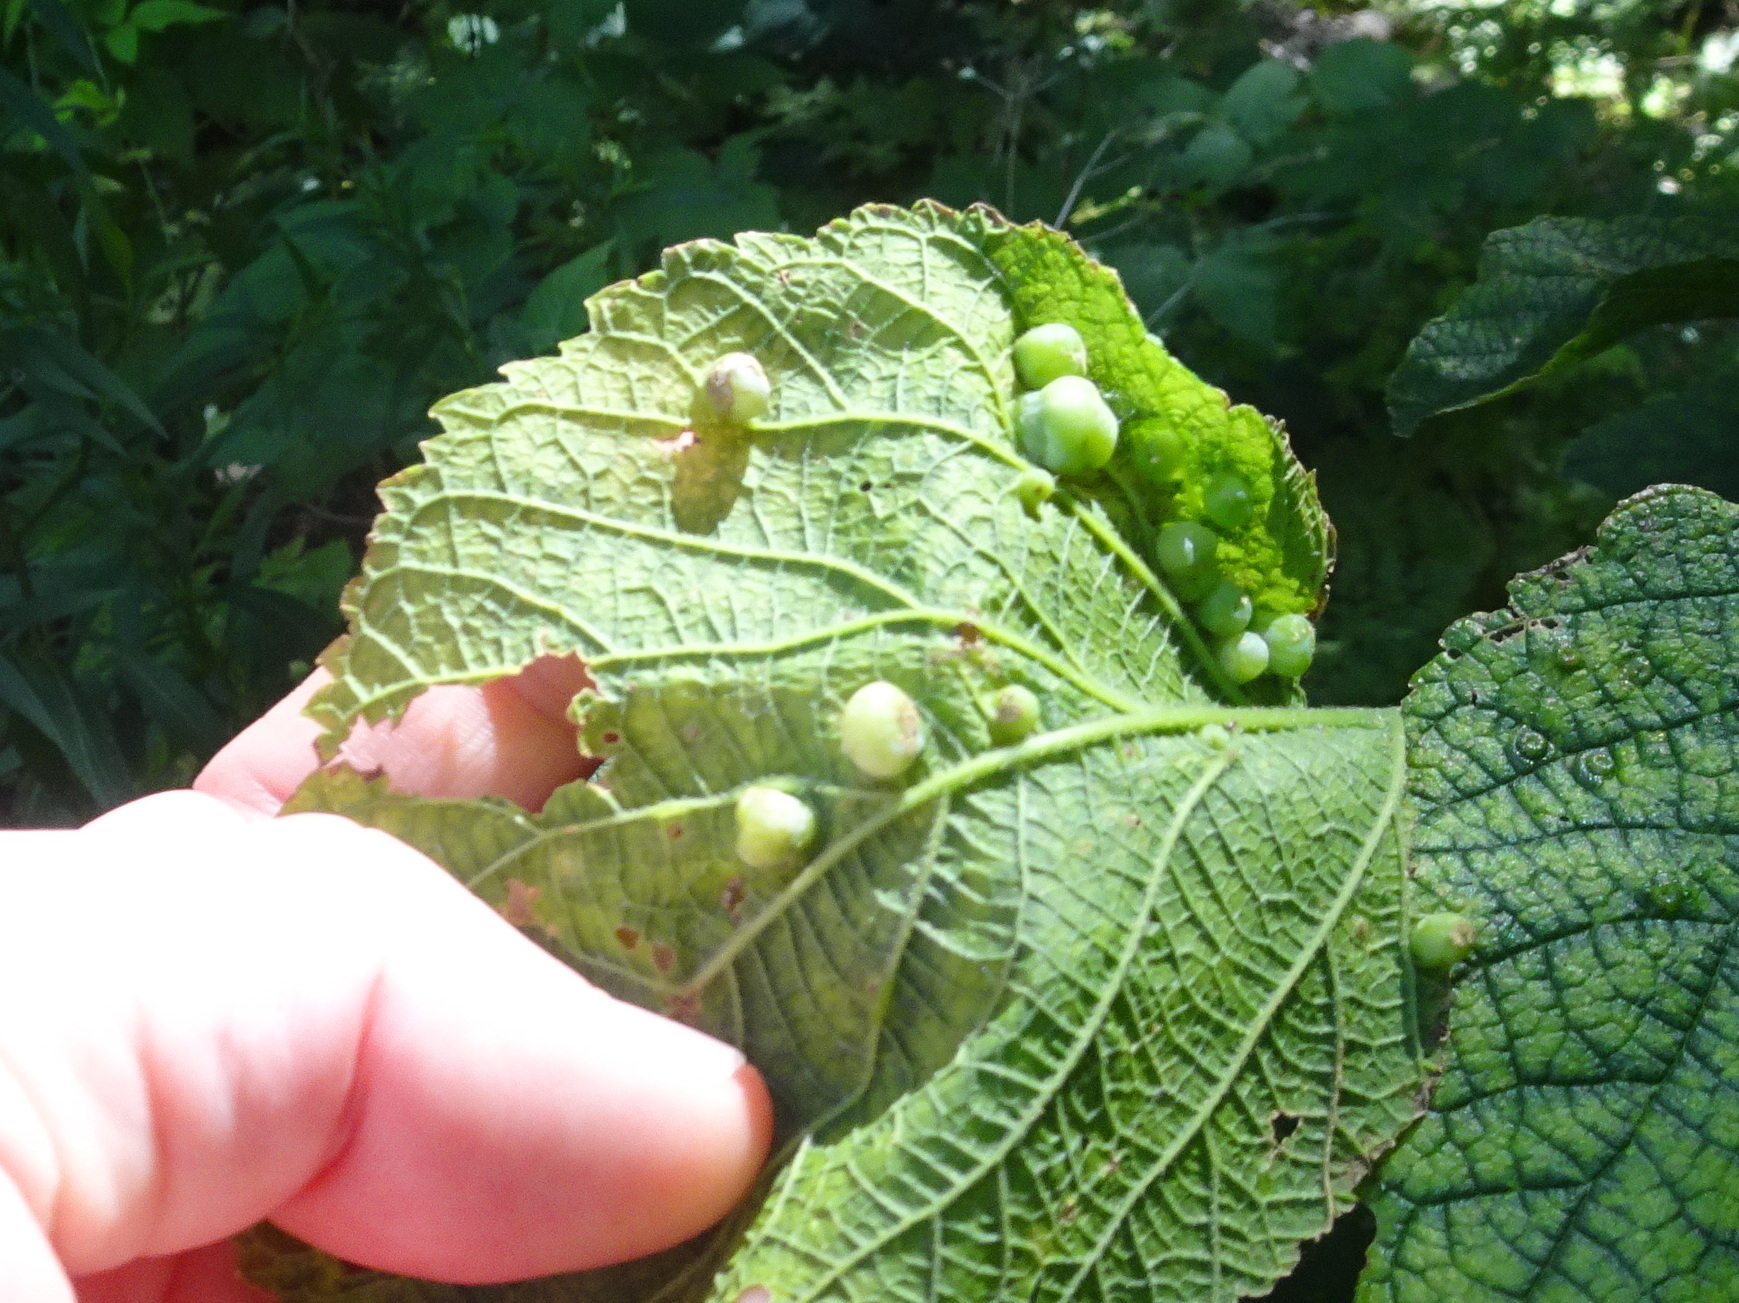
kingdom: Animalia
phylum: Arthropoda
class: Insecta
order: Hemiptera
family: Aphalaridae
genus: Pachypsylla
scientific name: Pachypsylla celtidismamma
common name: Hackberry nipplegall psyllid
